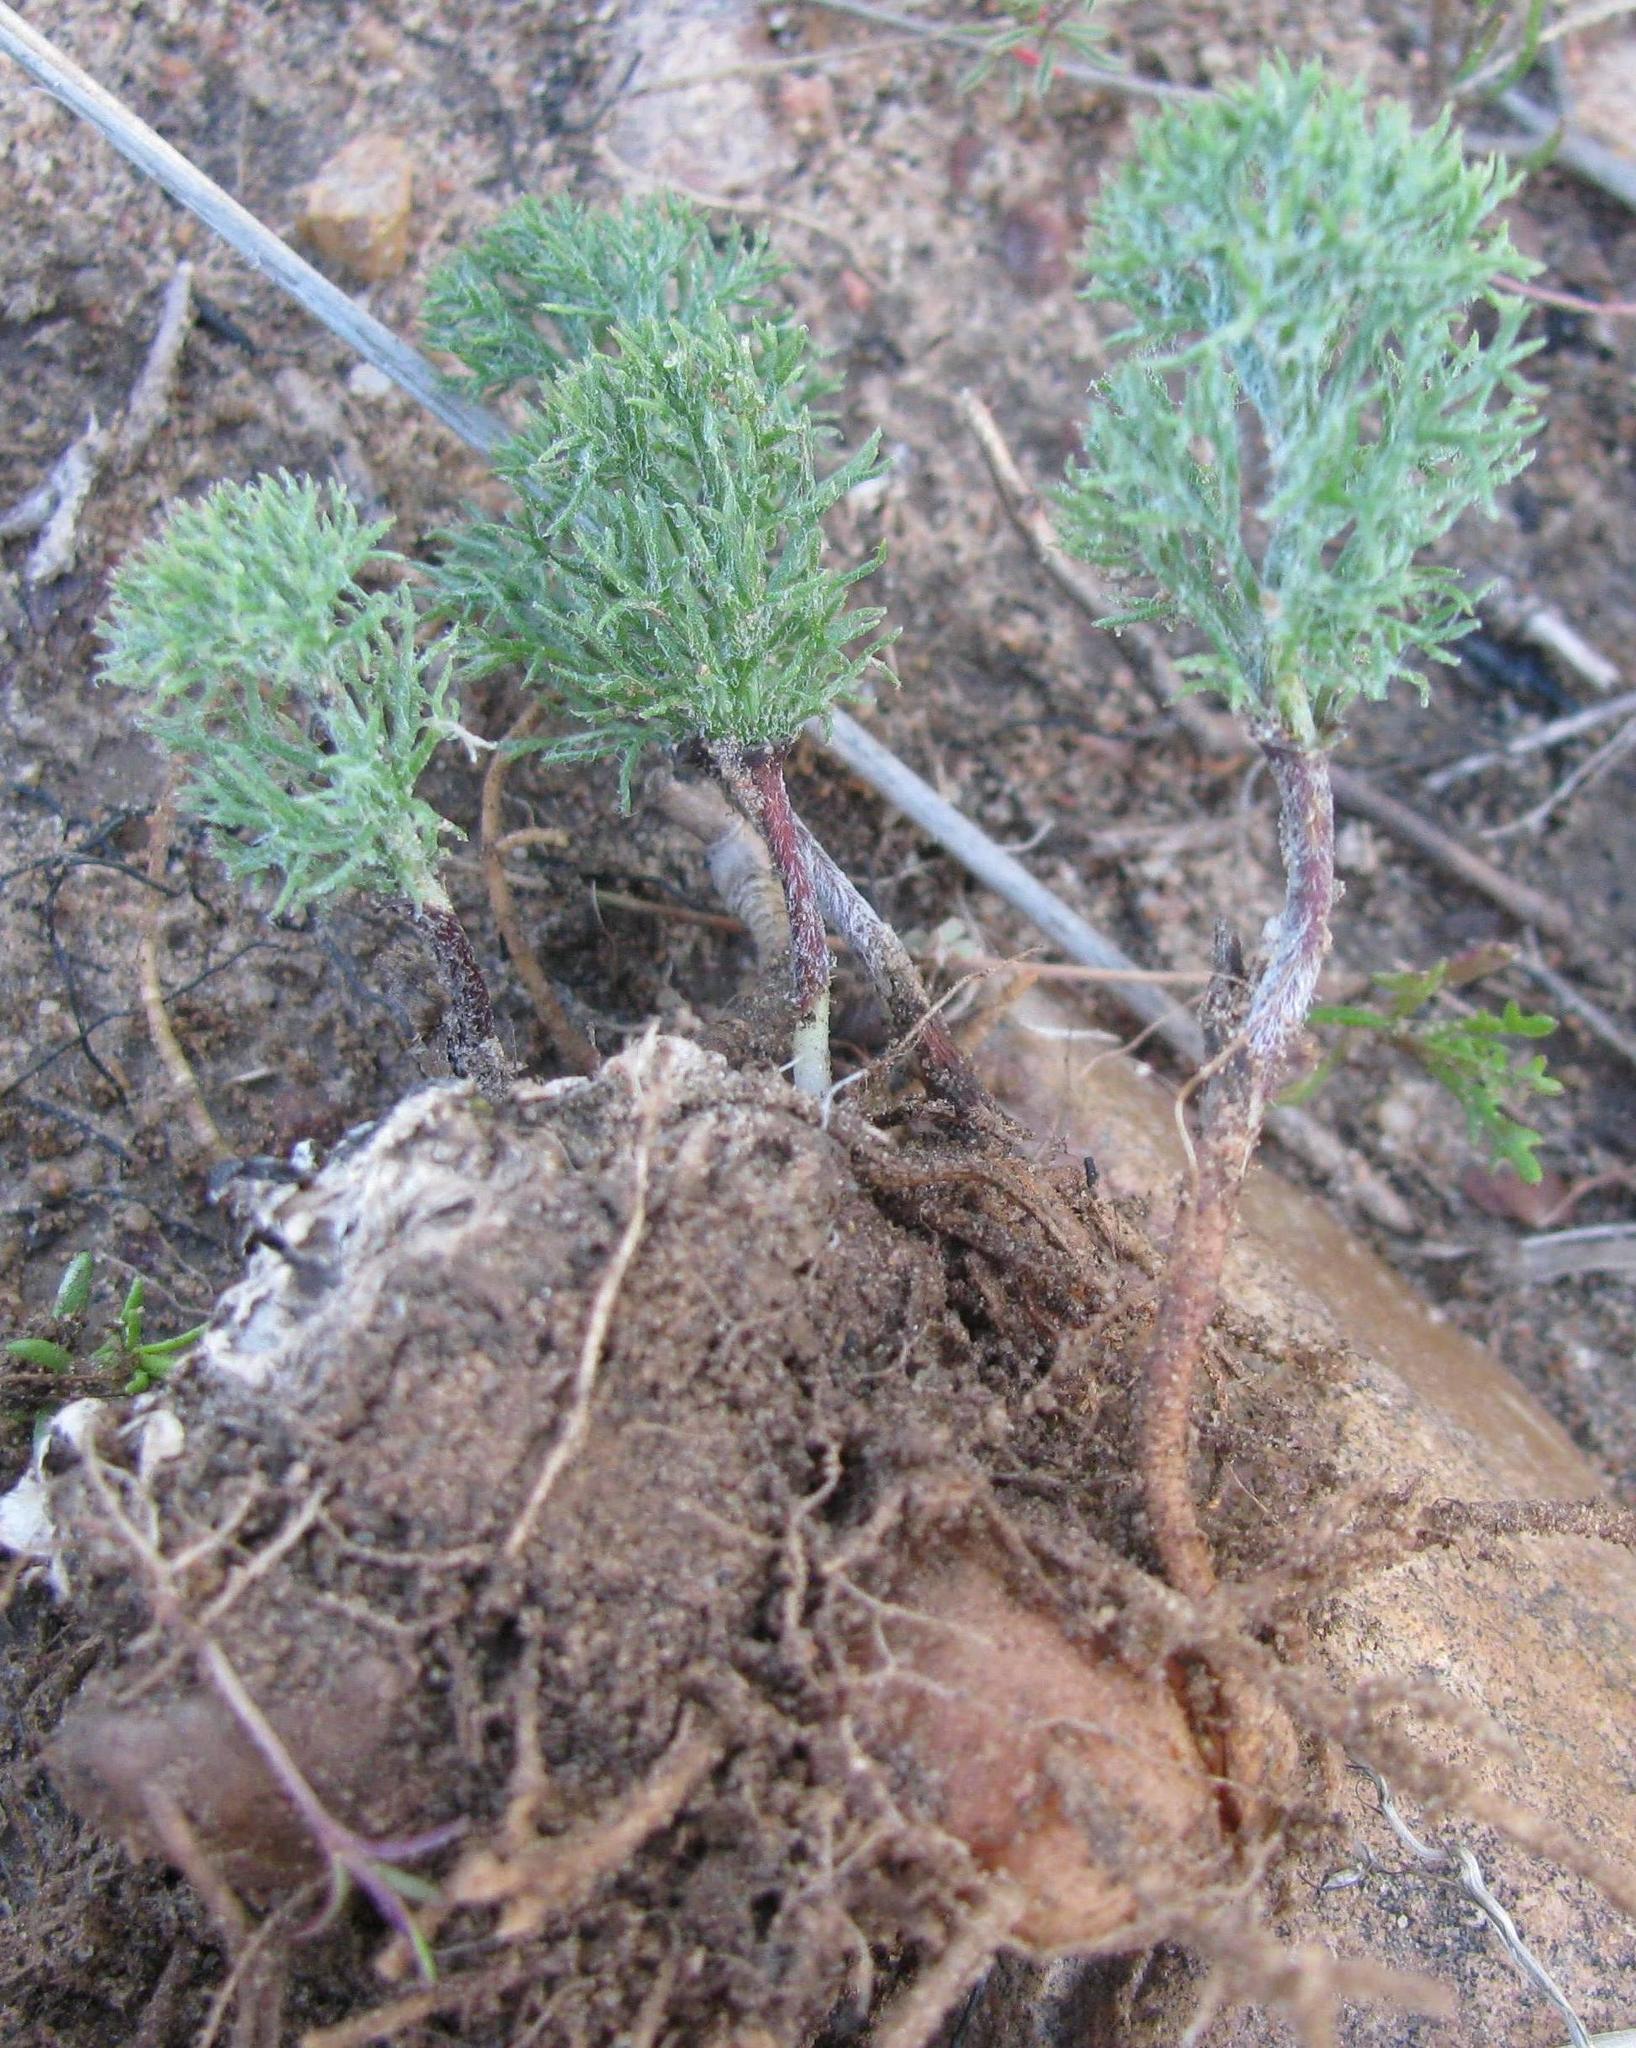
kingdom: Plantae
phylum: Tracheophyta
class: Liliopsida
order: Asparagales
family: Asparagaceae
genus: Eriospermum
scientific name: Eriospermum paradoxum
